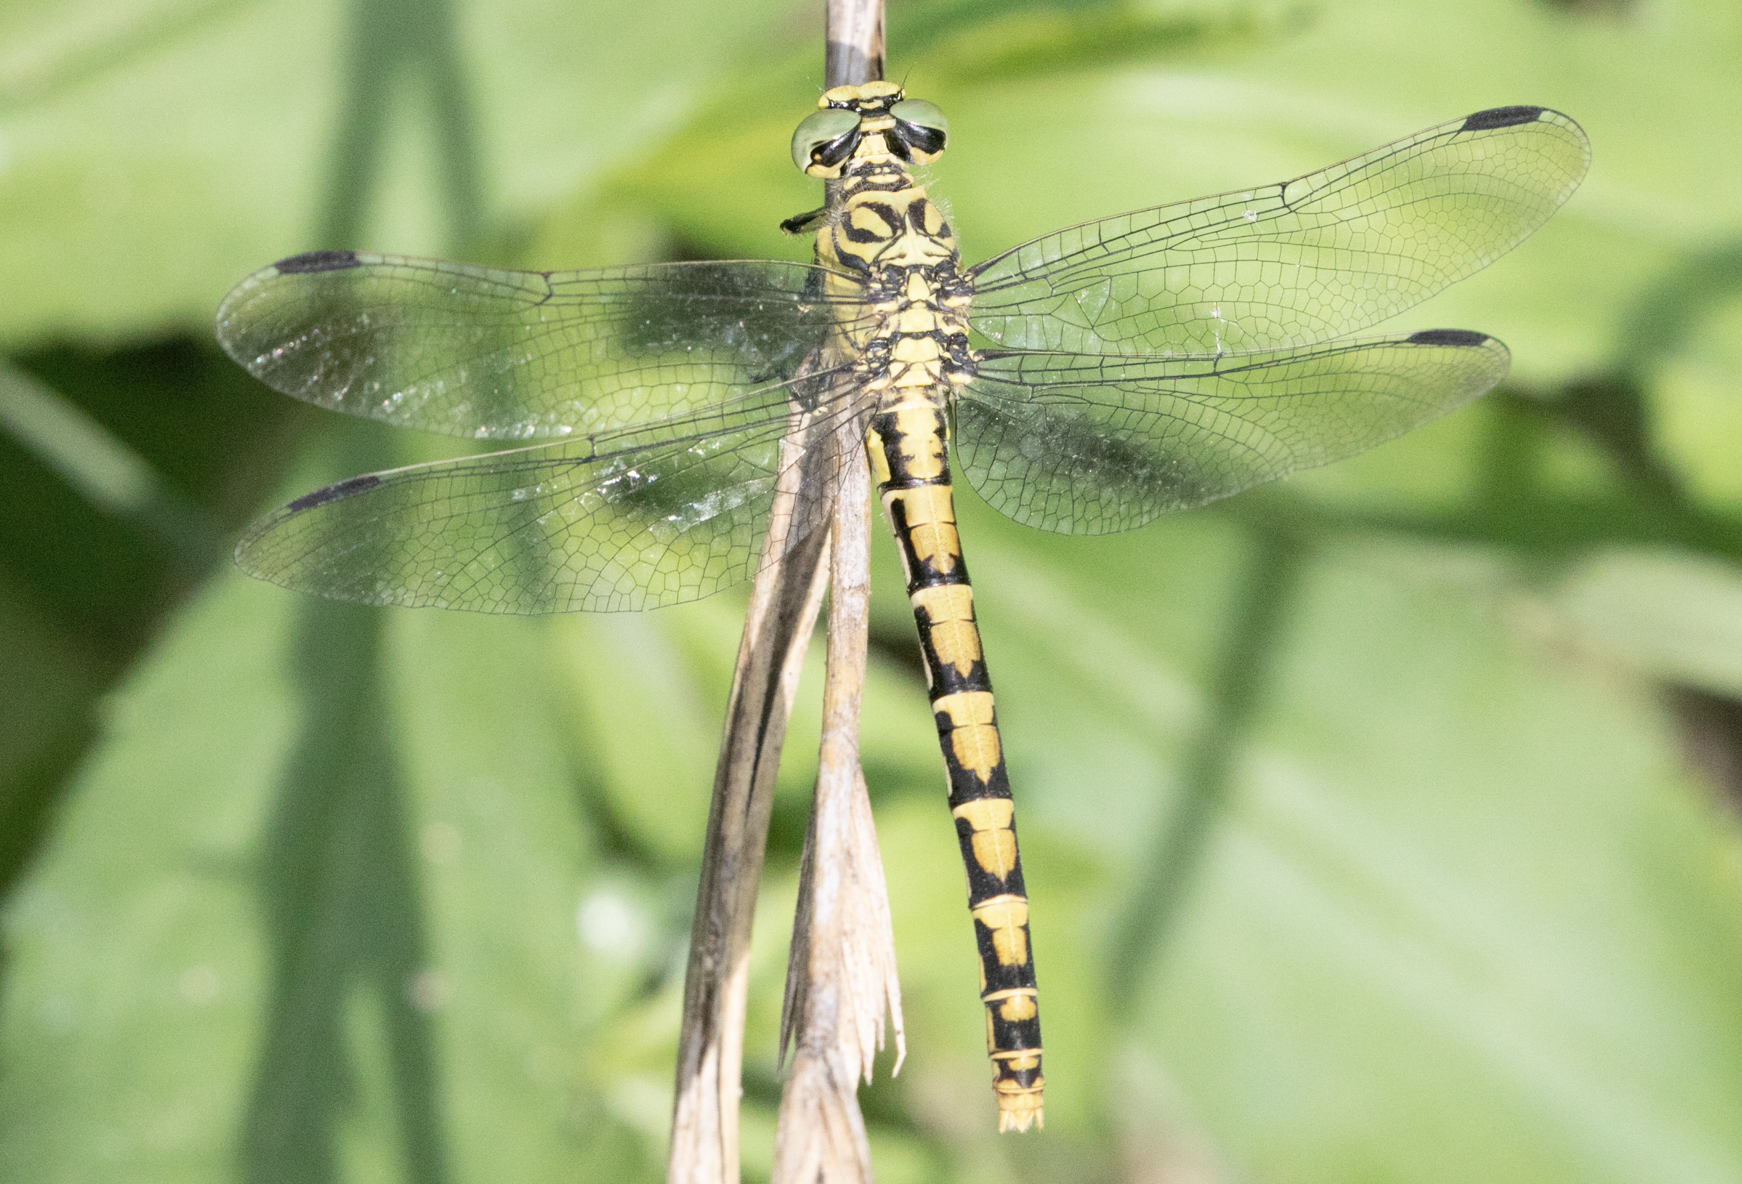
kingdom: Animalia
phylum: Arthropoda
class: Insecta
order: Odonata
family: Gomphidae
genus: Onychogomphus
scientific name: Onychogomphus forcipatus
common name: Small pincertail
